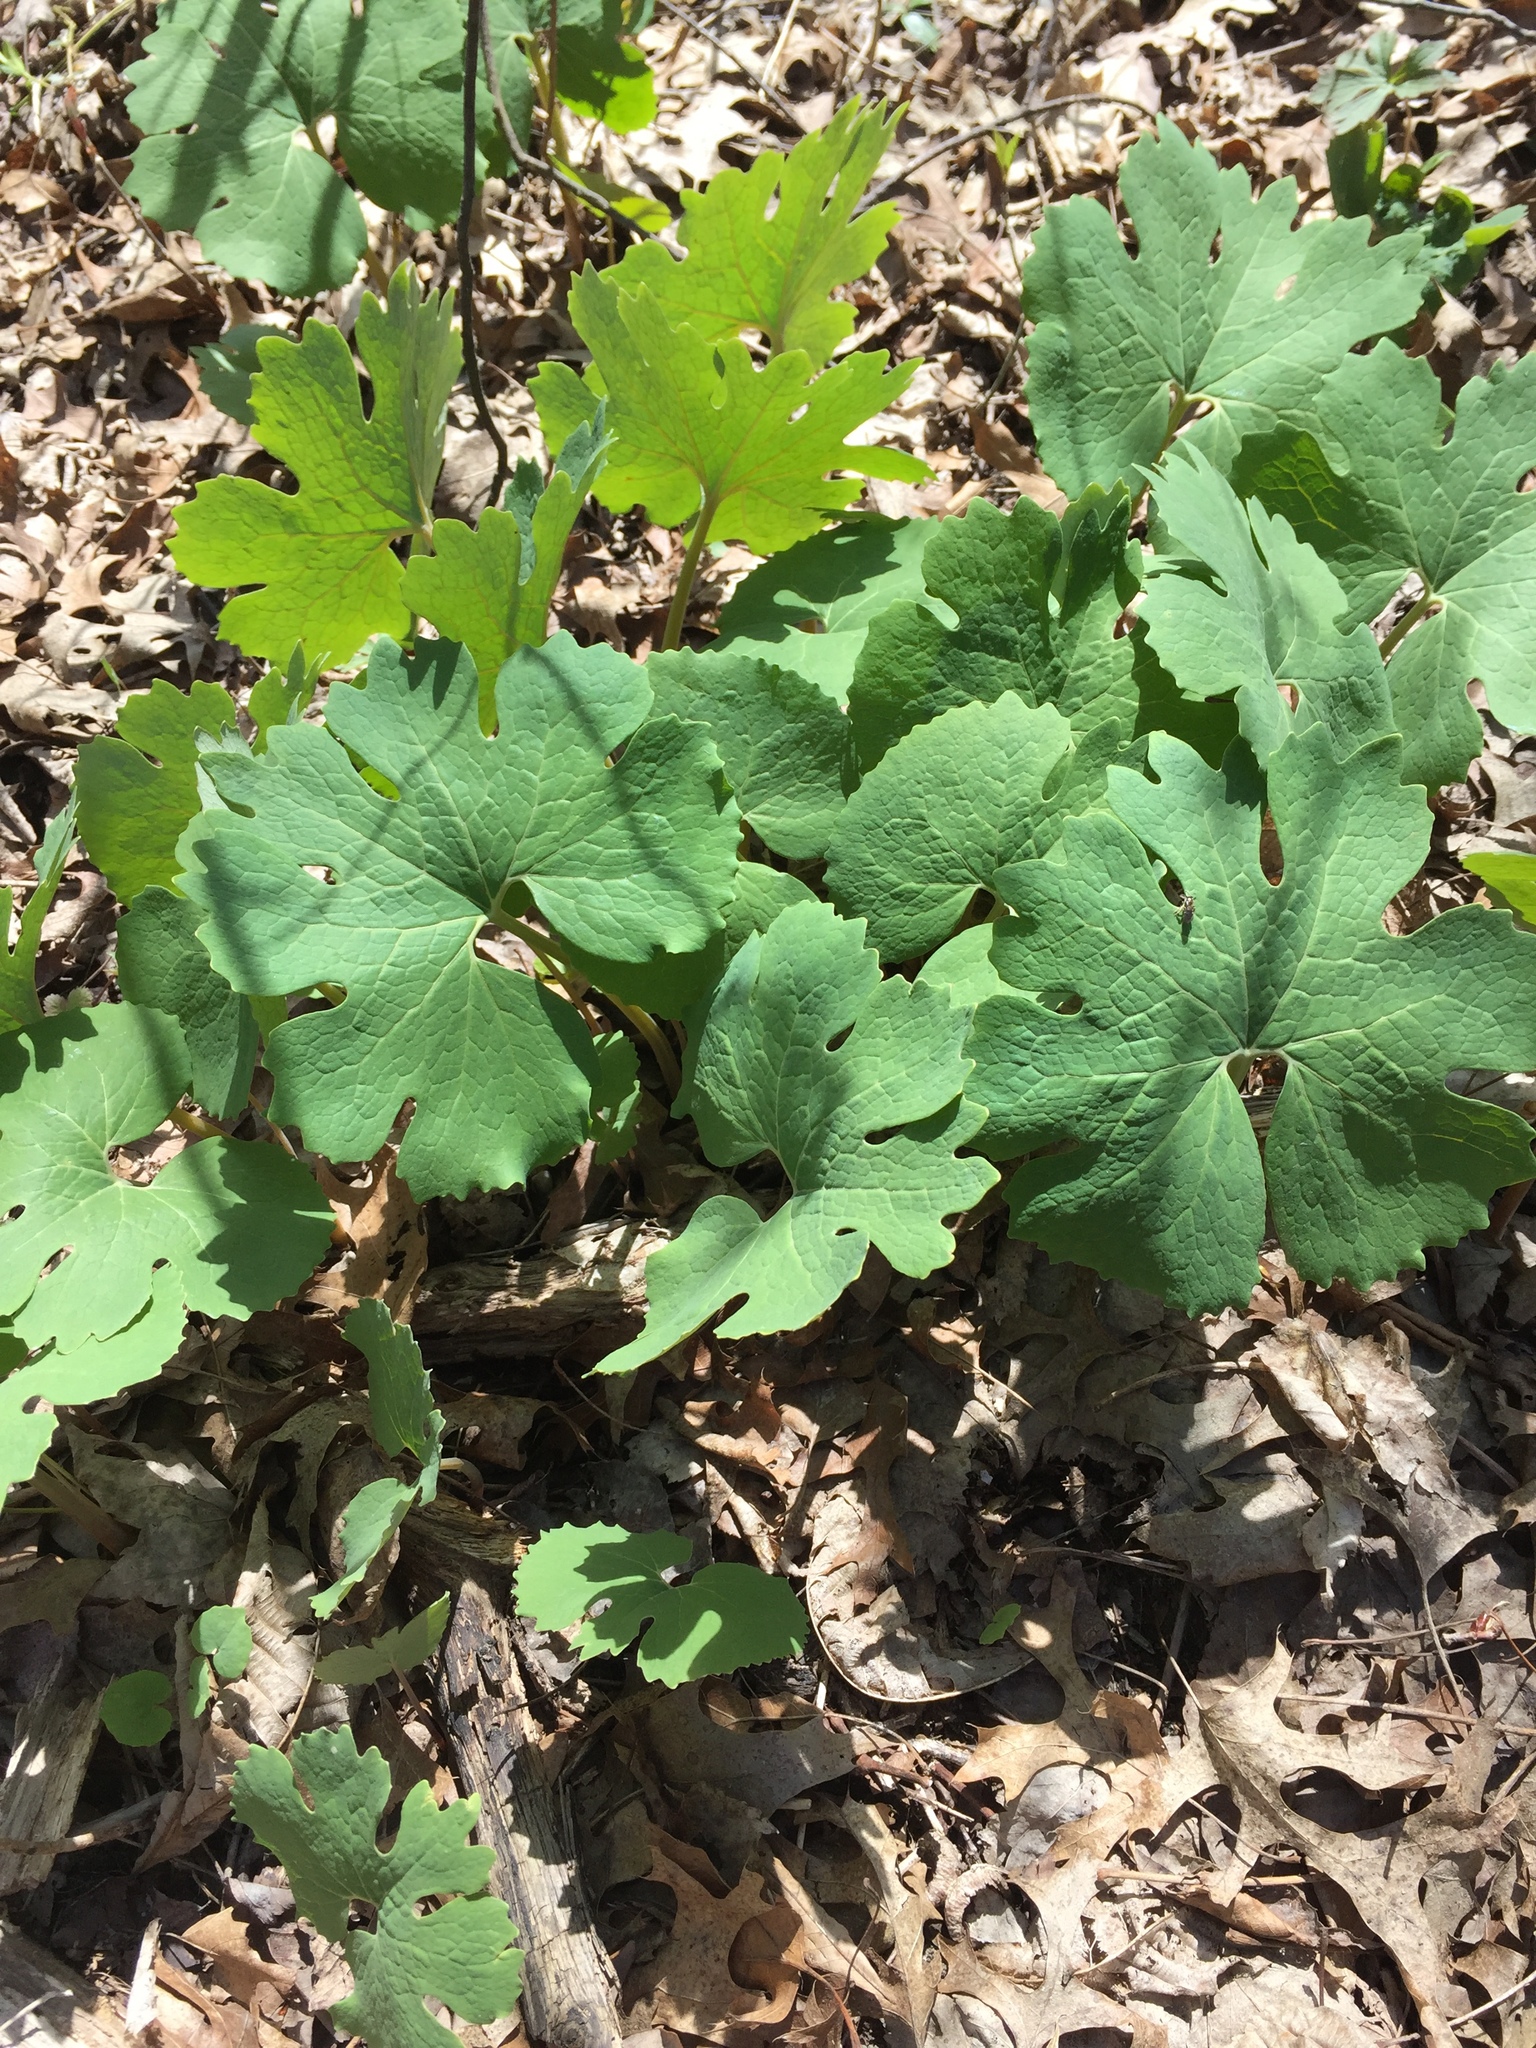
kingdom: Plantae
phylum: Tracheophyta
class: Magnoliopsida
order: Ranunculales
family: Papaveraceae
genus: Sanguinaria
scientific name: Sanguinaria canadensis
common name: Bloodroot
